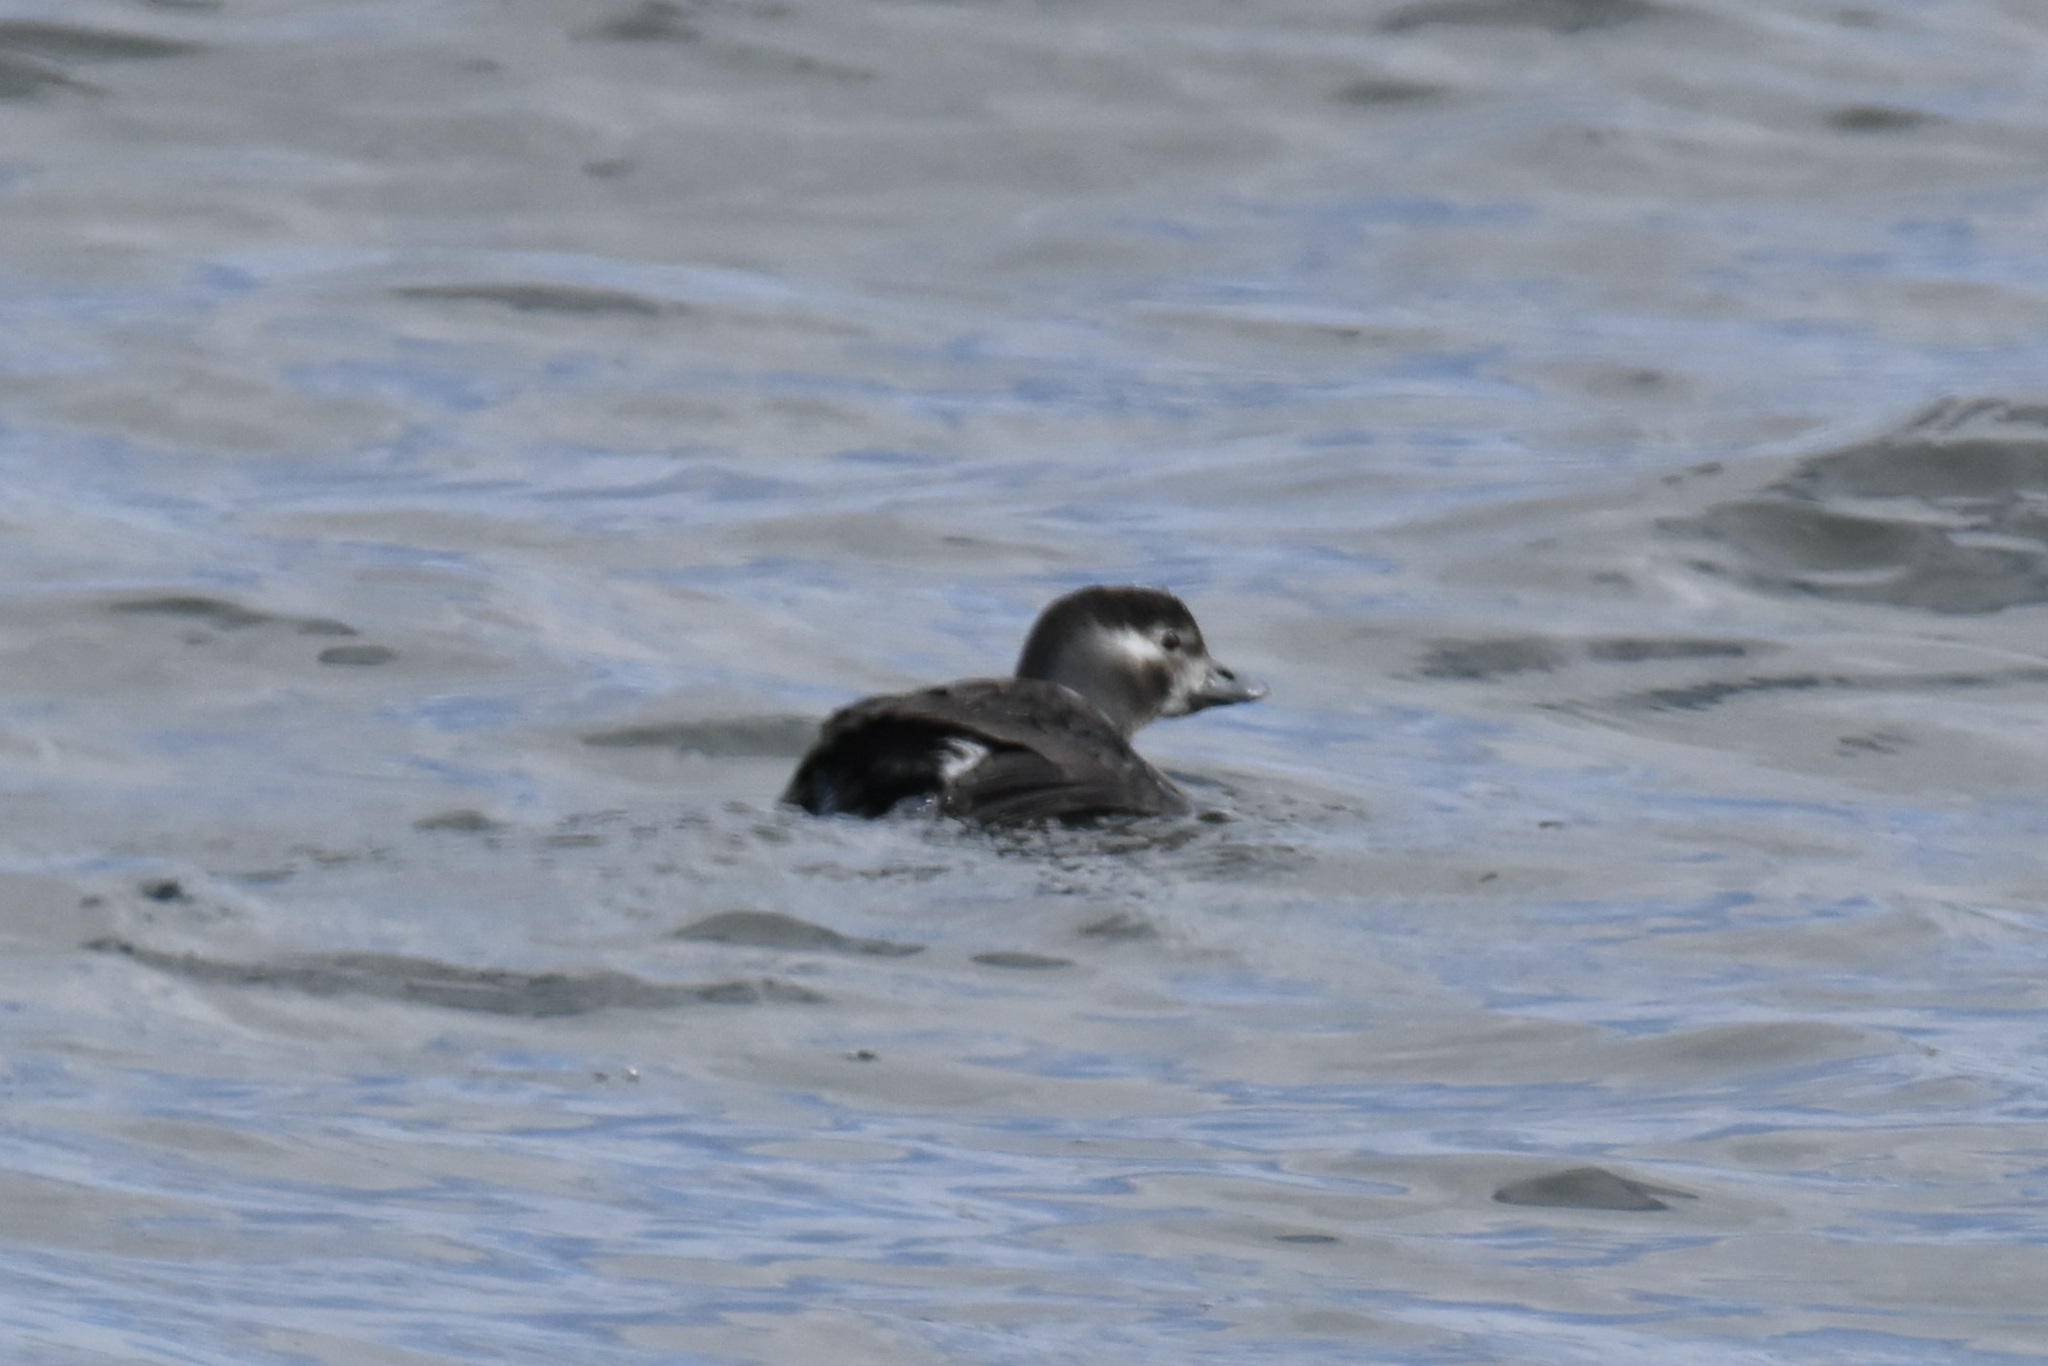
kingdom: Animalia
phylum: Chordata
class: Aves
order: Anseriformes
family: Anatidae
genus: Clangula
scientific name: Clangula hyemalis
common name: Long-tailed duck
